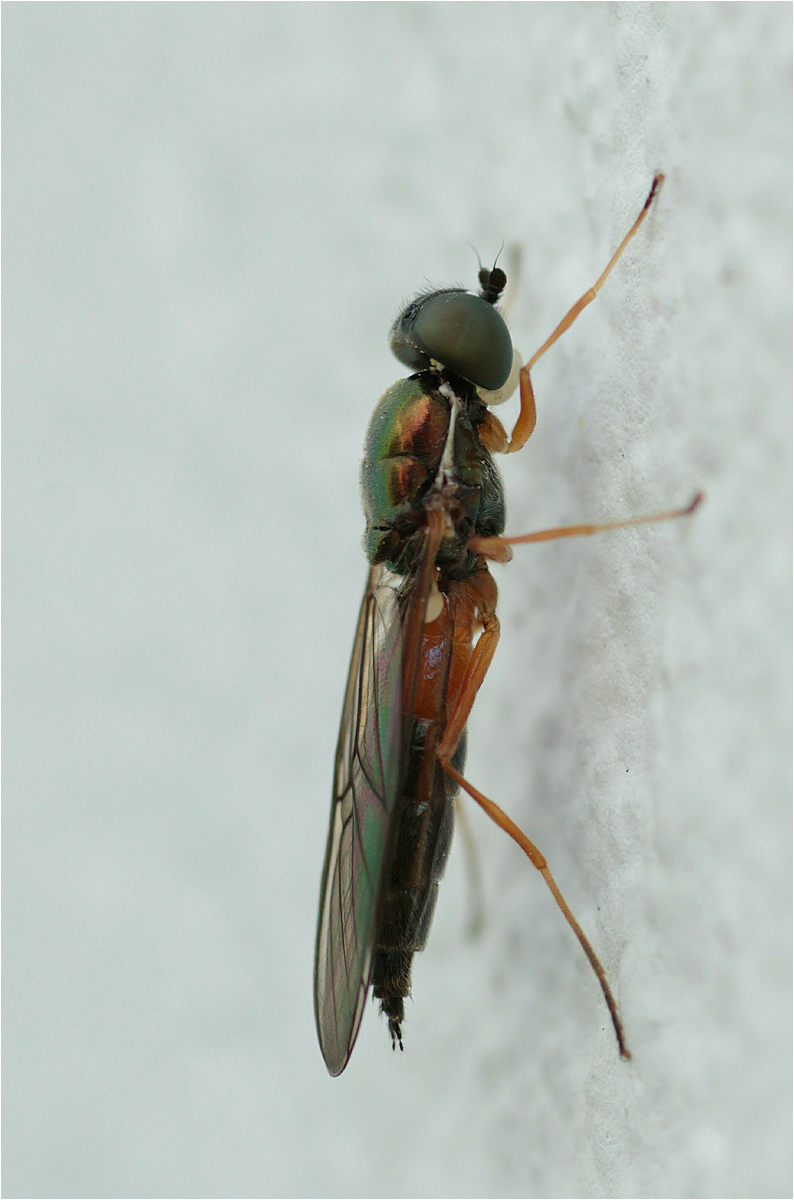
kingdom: Animalia
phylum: Arthropoda
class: Insecta
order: Diptera
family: Stratiomyidae
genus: Sargus
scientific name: Sargus bipunctatus
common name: Twin-spot centurion
